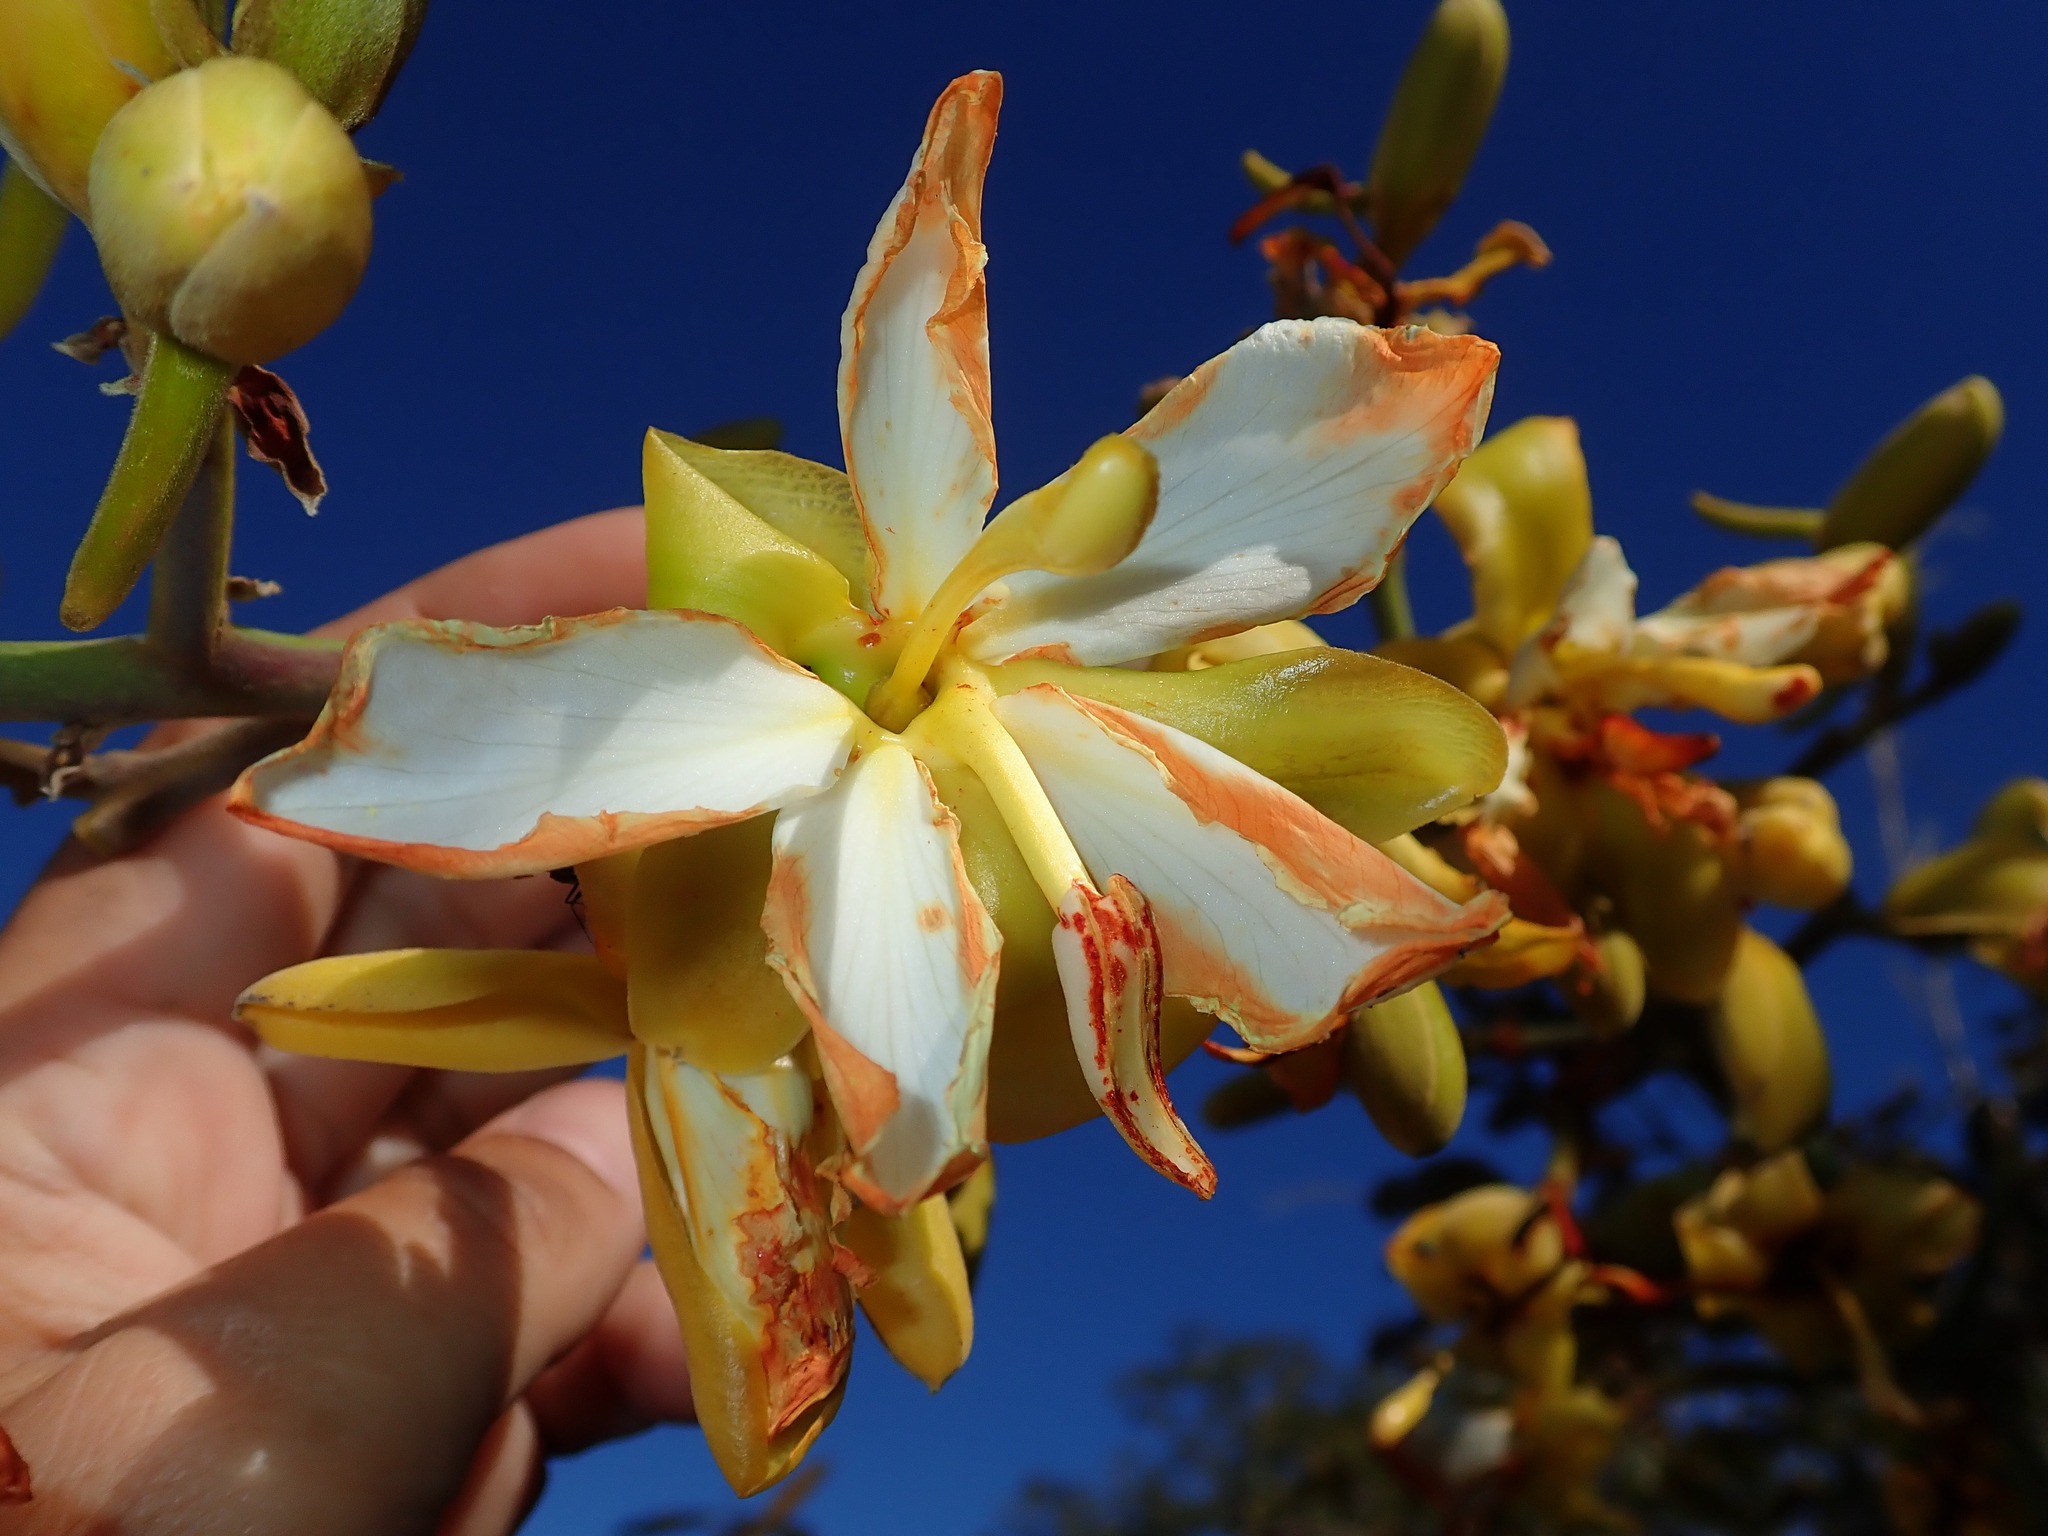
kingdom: Plantae
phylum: Tracheophyta
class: Magnoliopsida
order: Myrtales
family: Vochysiaceae
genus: Salvertia
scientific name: Salvertia convallariodora
